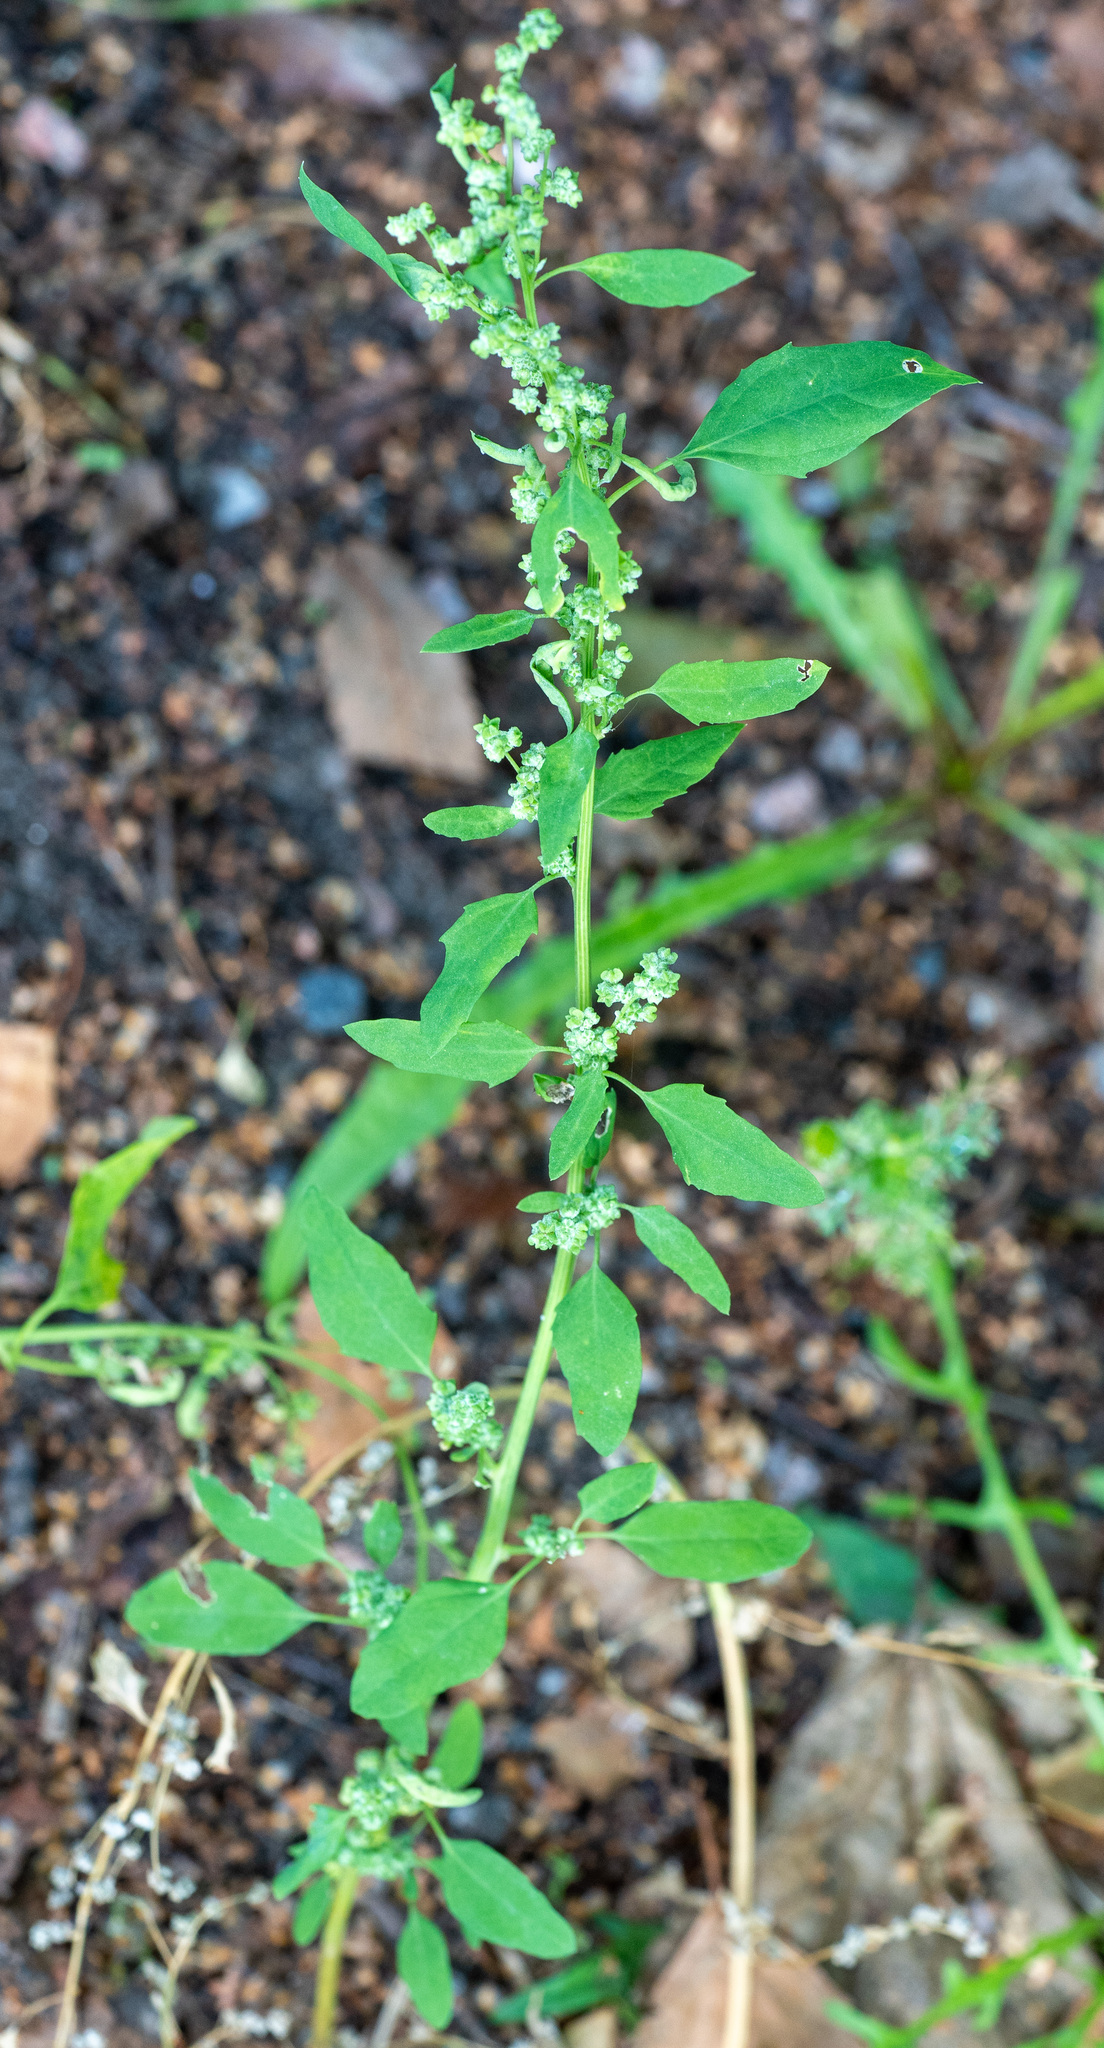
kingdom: Plantae
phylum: Tracheophyta
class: Magnoliopsida
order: Caryophyllales
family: Amaranthaceae
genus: Chenopodium
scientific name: Chenopodium album
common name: Fat-hen
